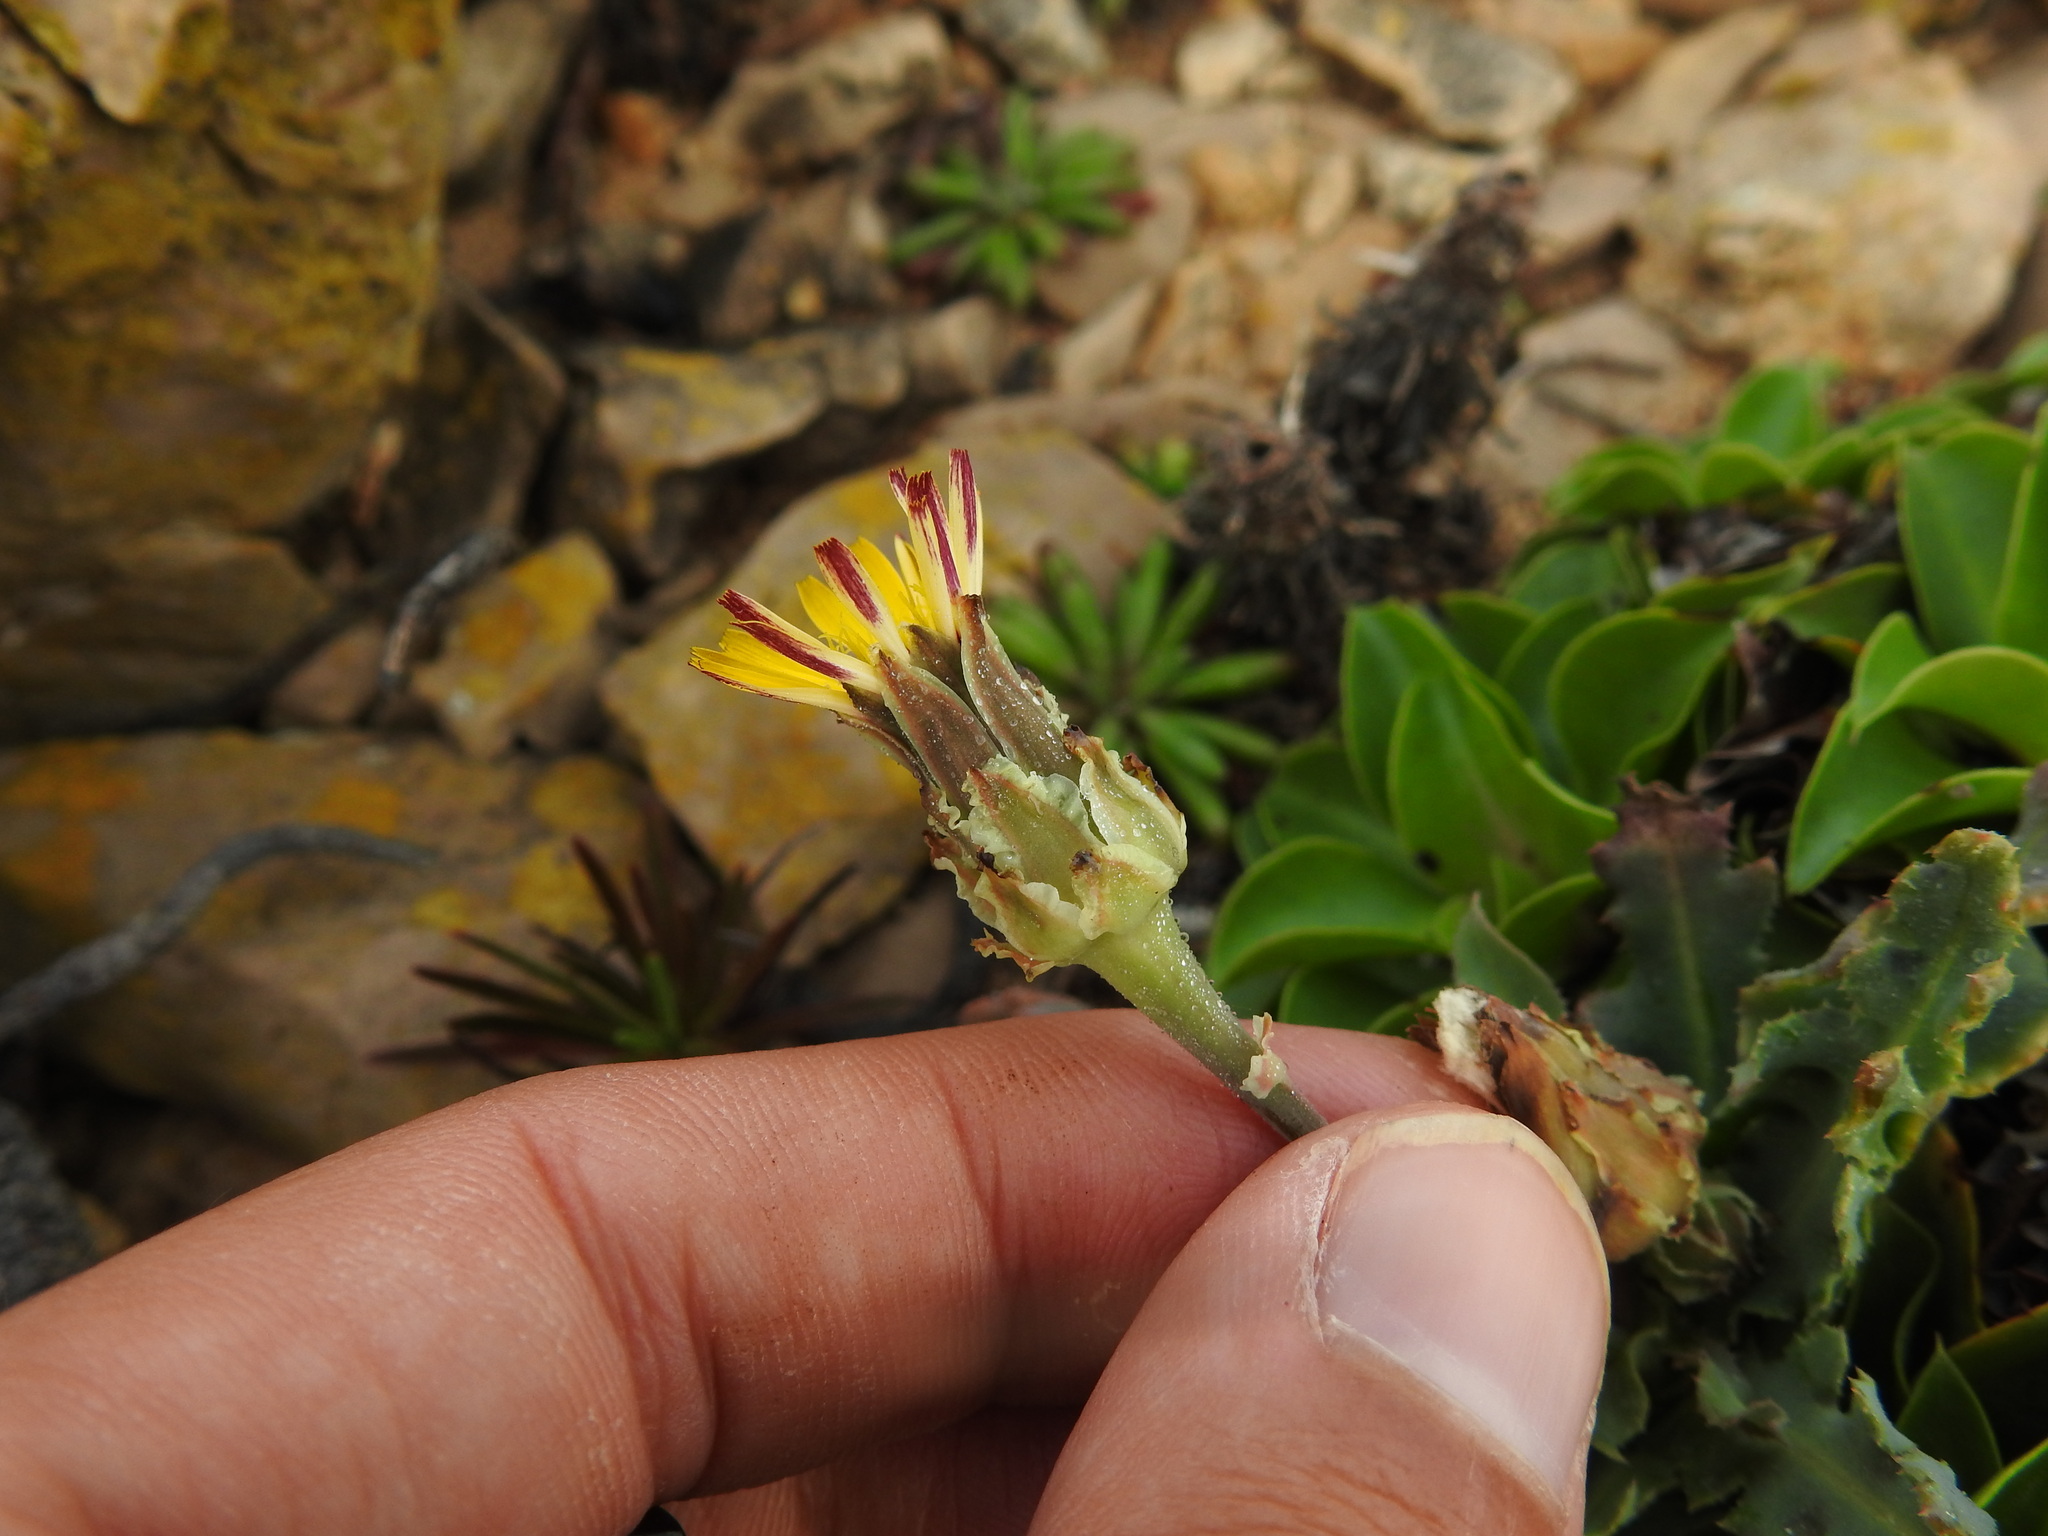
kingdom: Plantae
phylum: Tracheophyta
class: Magnoliopsida
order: Asterales
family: Asteraceae
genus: Reichardia
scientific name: Reichardia gaditana
